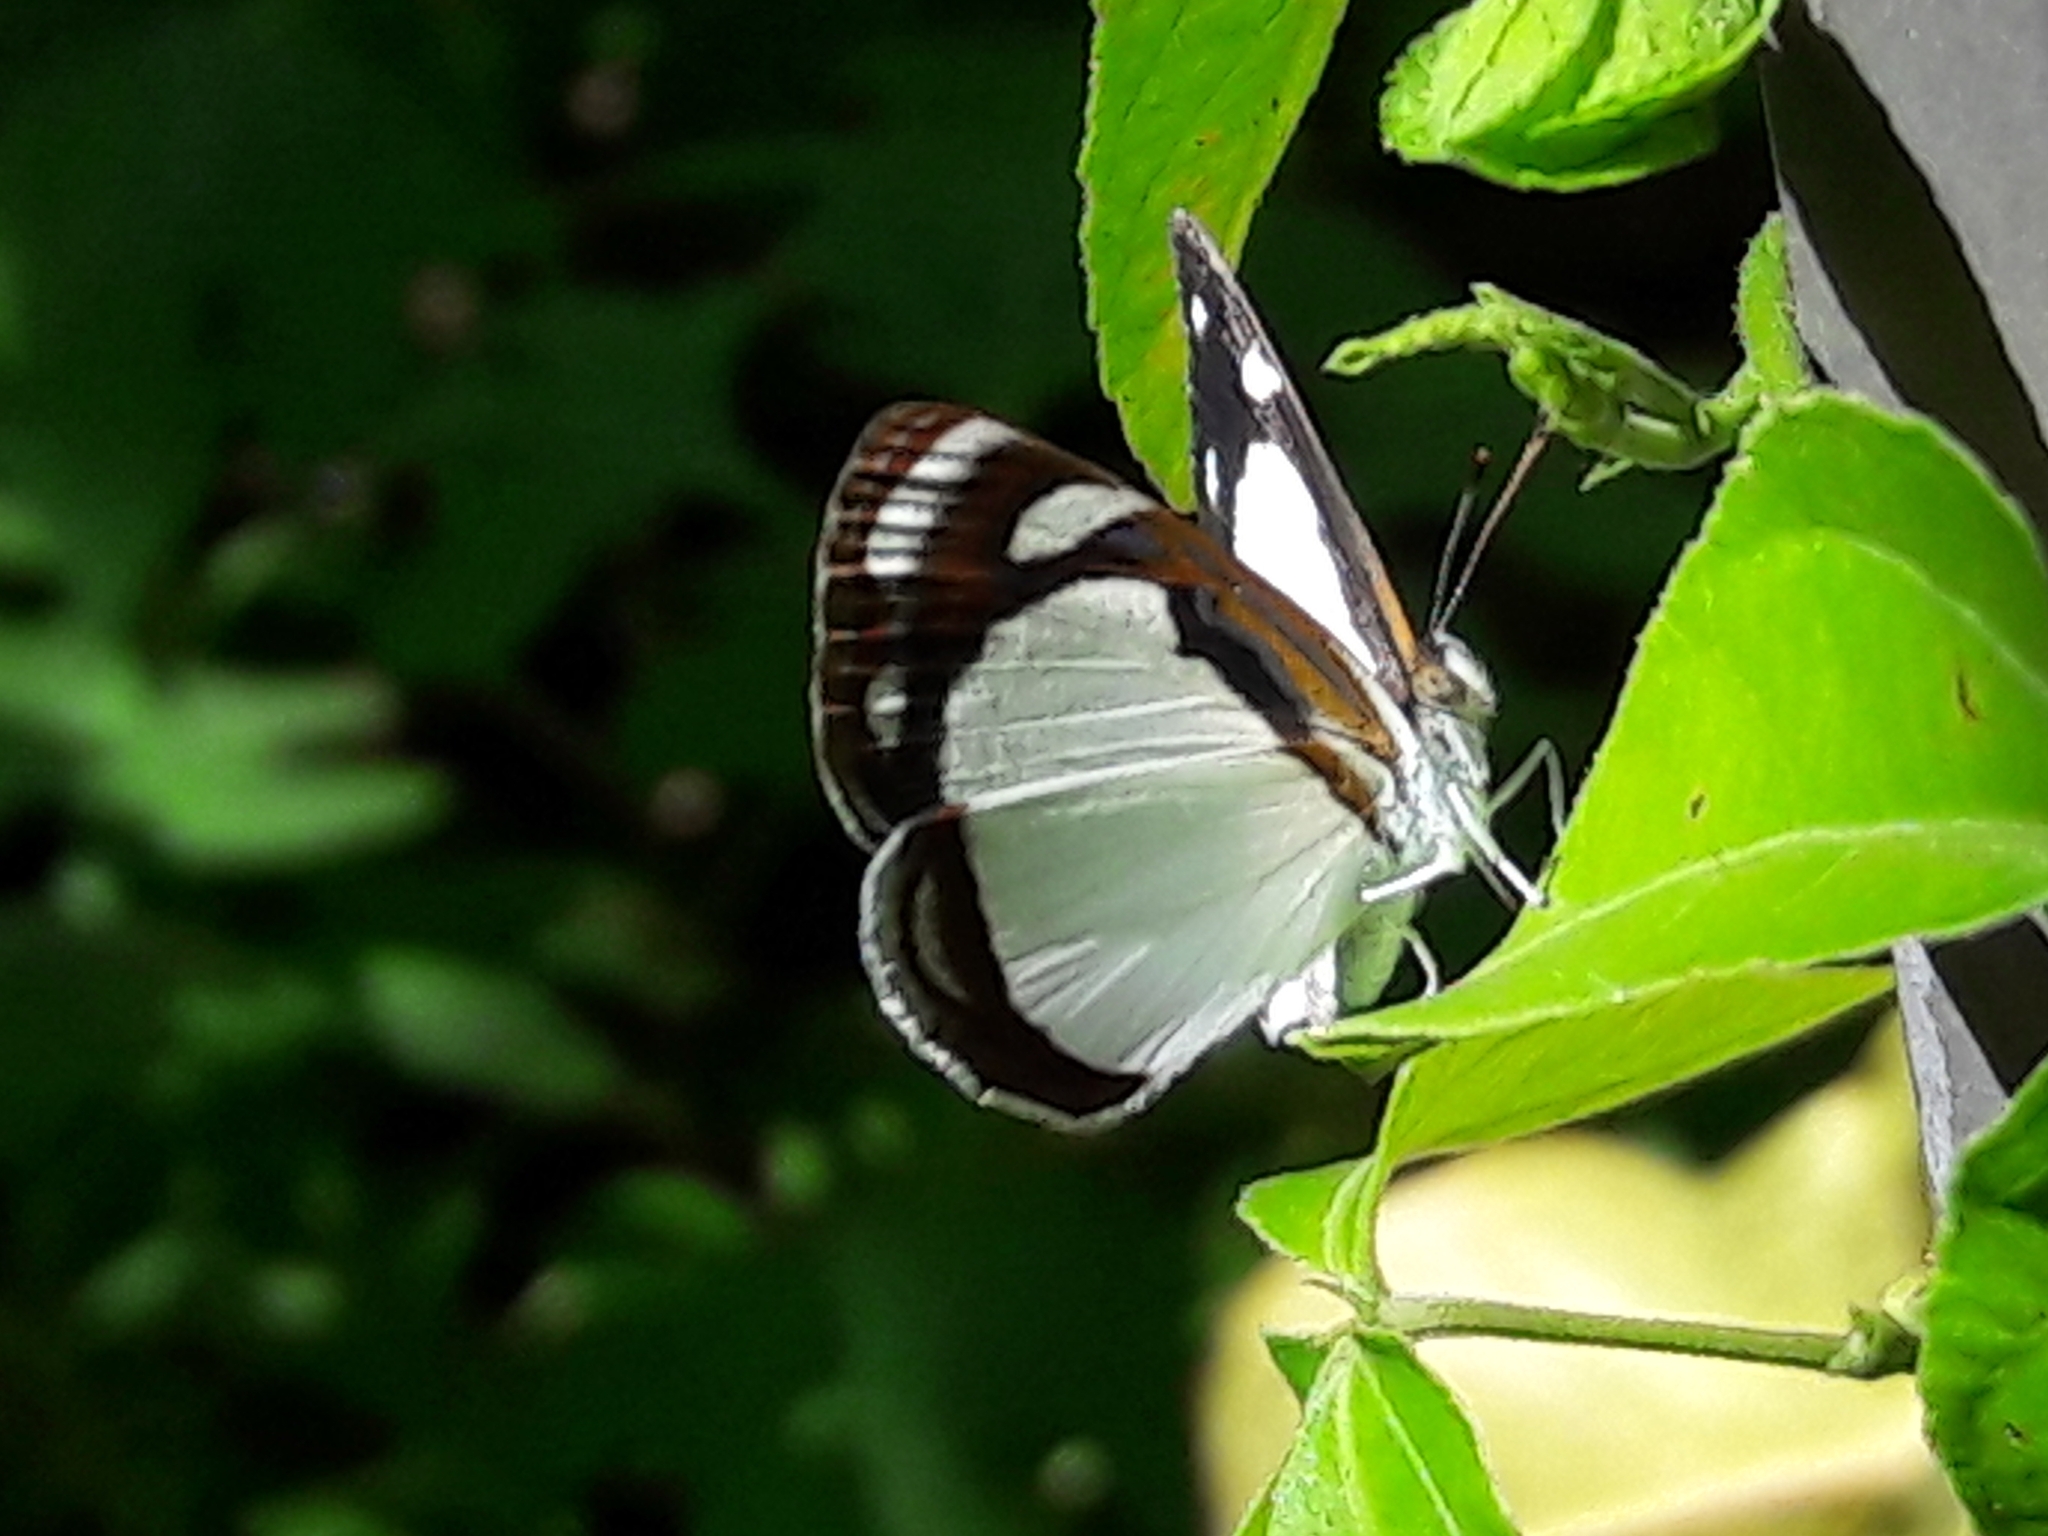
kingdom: Animalia
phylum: Arthropoda
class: Insecta
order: Lepidoptera
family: Nymphalidae
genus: Dynamine
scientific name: Dynamine agacles
